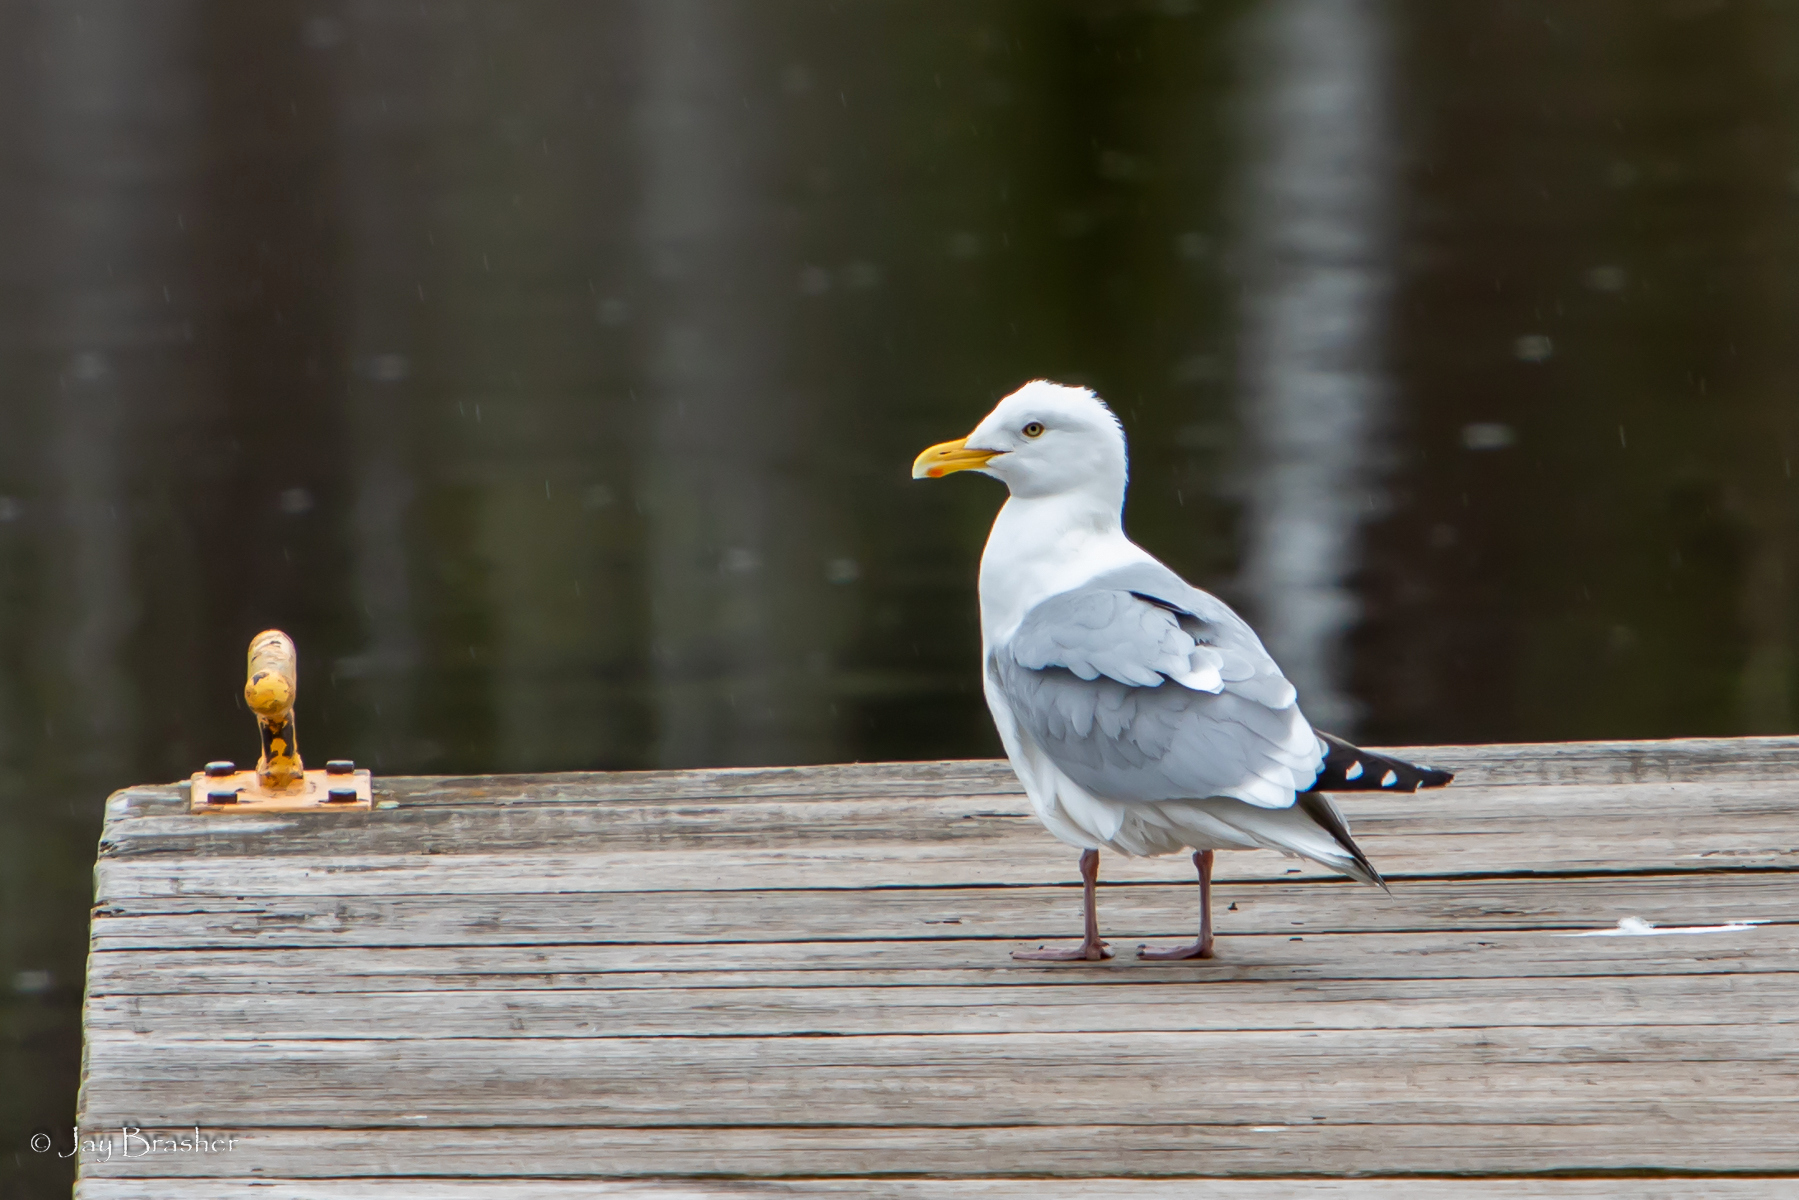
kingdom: Animalia
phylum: Chordata
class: Aves
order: Charadriiformes
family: Laridae
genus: Larus
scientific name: Larus argentatus
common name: Herring gull
